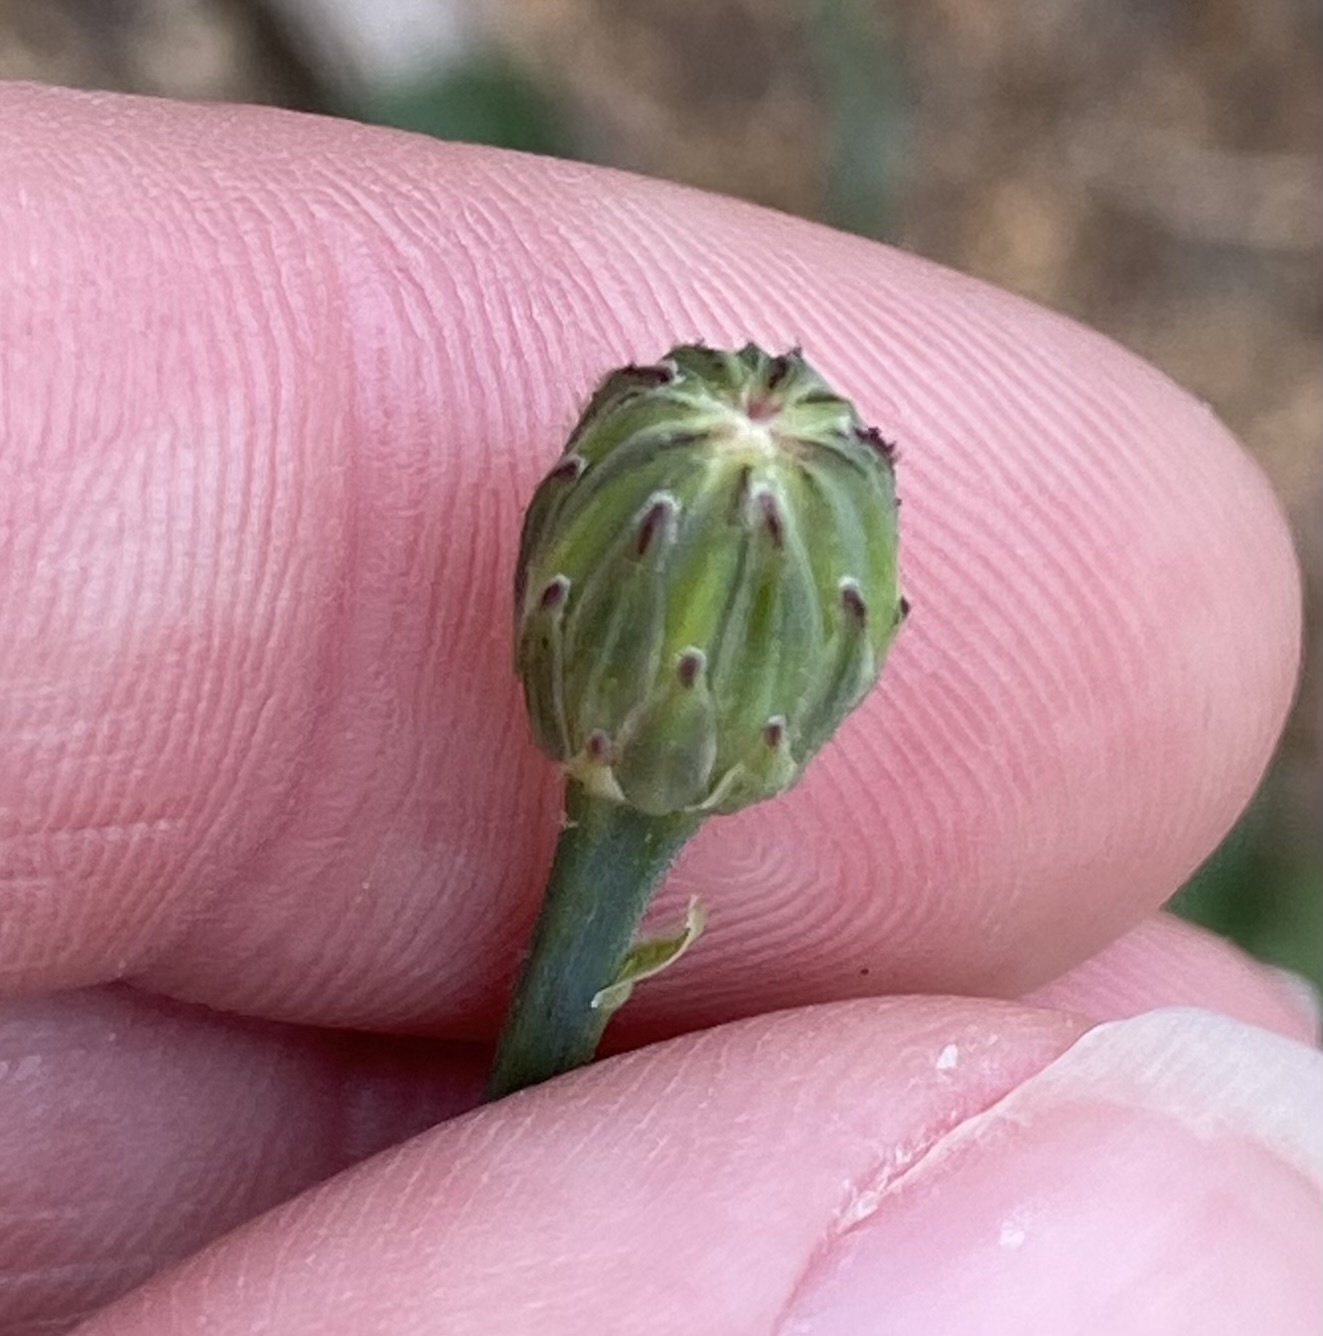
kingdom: Plantae
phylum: Tracheophyta
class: Magnoliopsida
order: Asterales
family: Asteraceae
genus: Hypochaeris
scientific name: Hypochaeris radicata
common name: Flatweed
